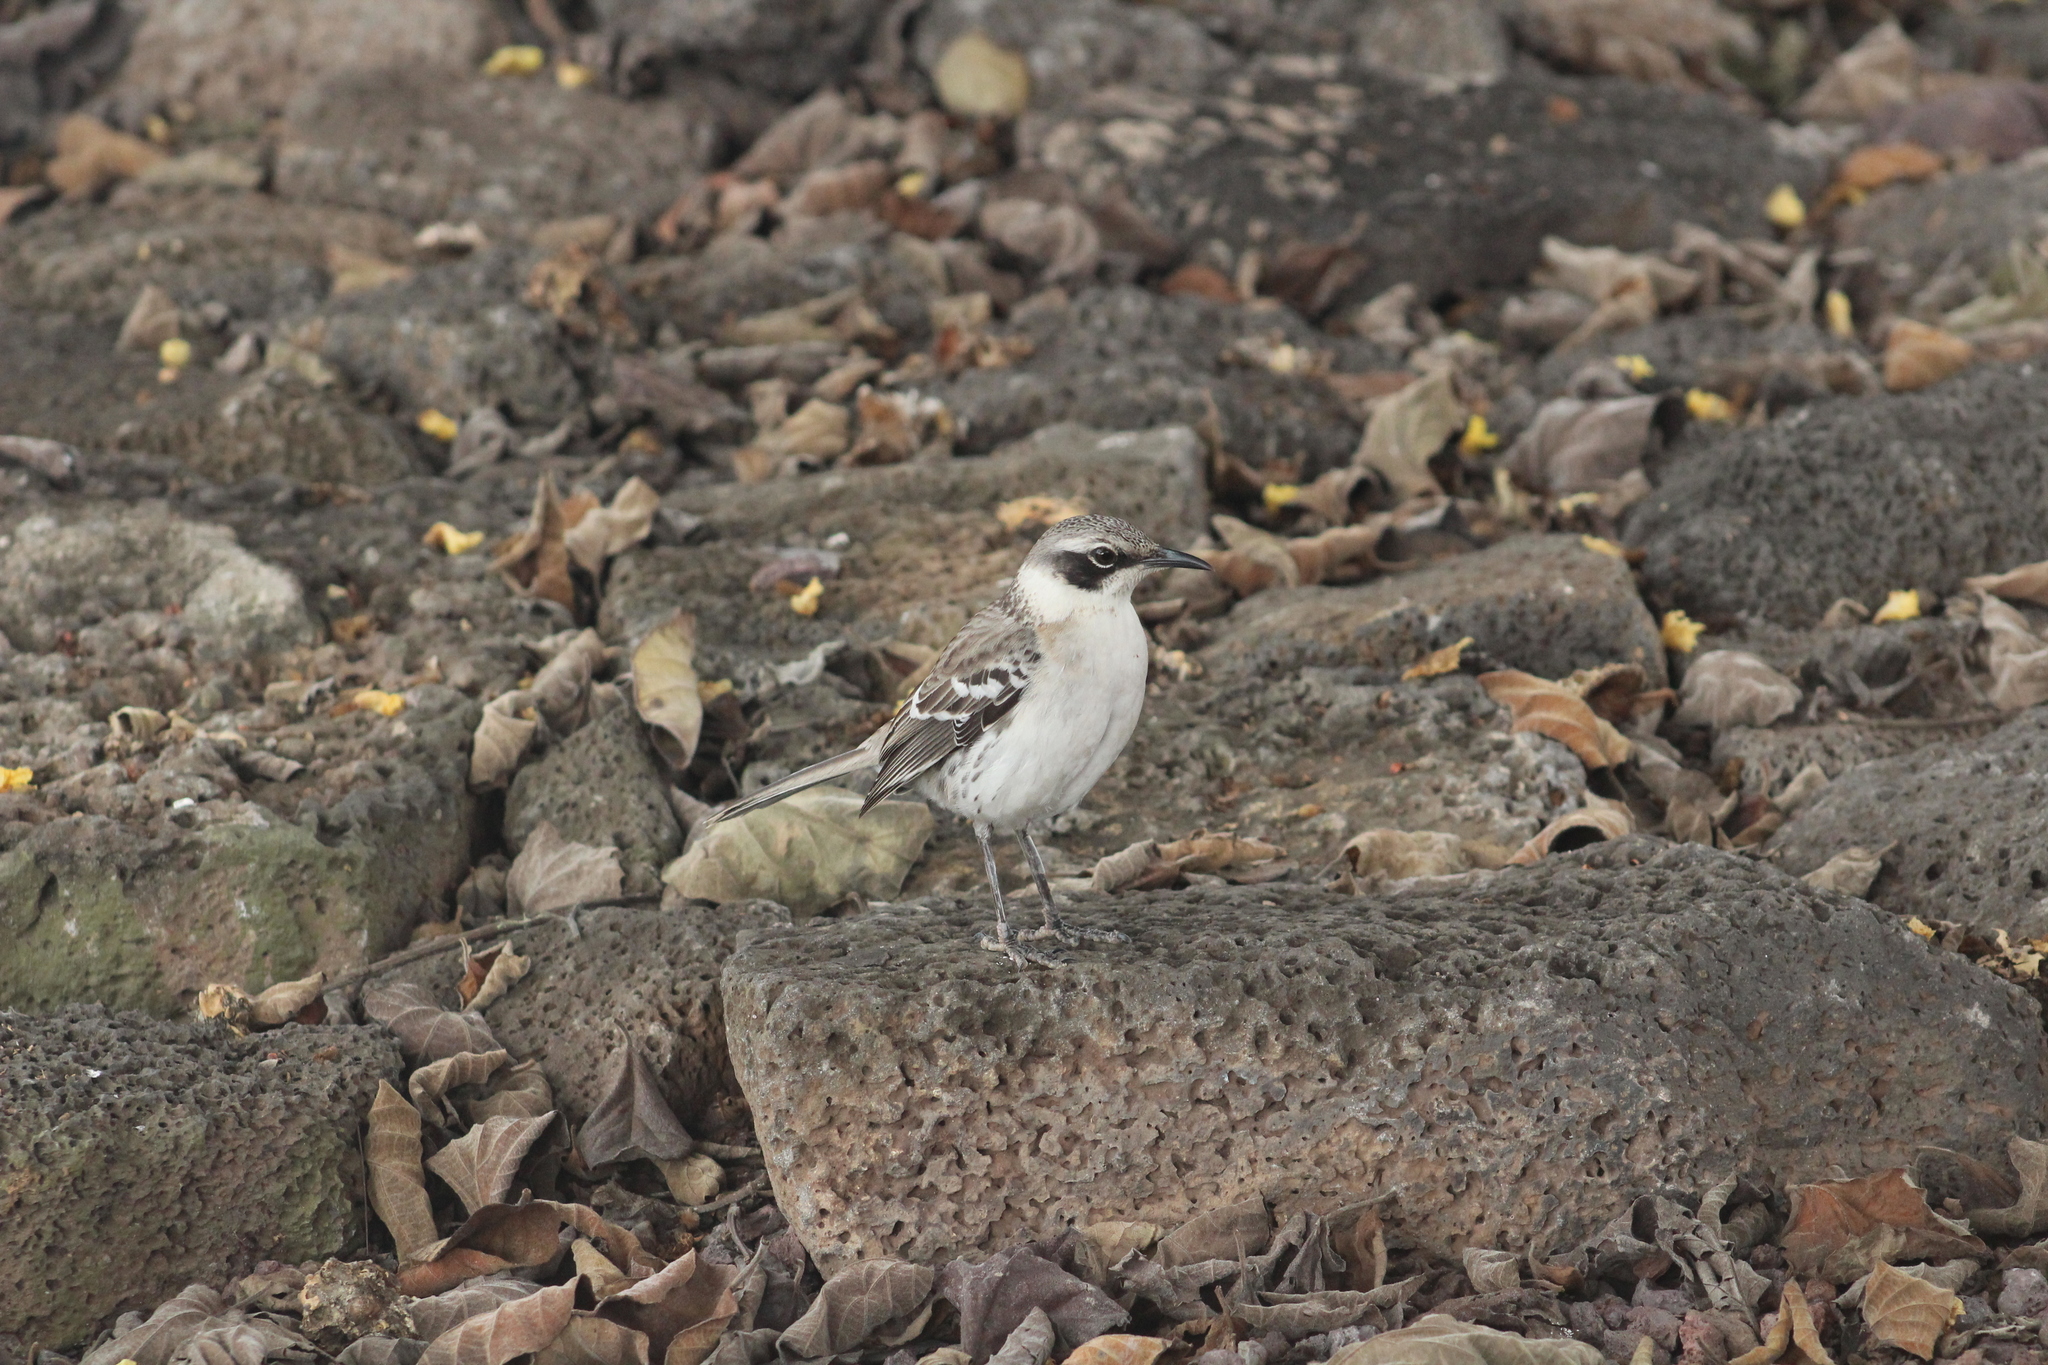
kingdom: Animalia
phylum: Chordata
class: Aves
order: Passeriformes
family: Mimidae
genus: Mimus
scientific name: Mimus parvulus
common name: Galapagos mockingbird
